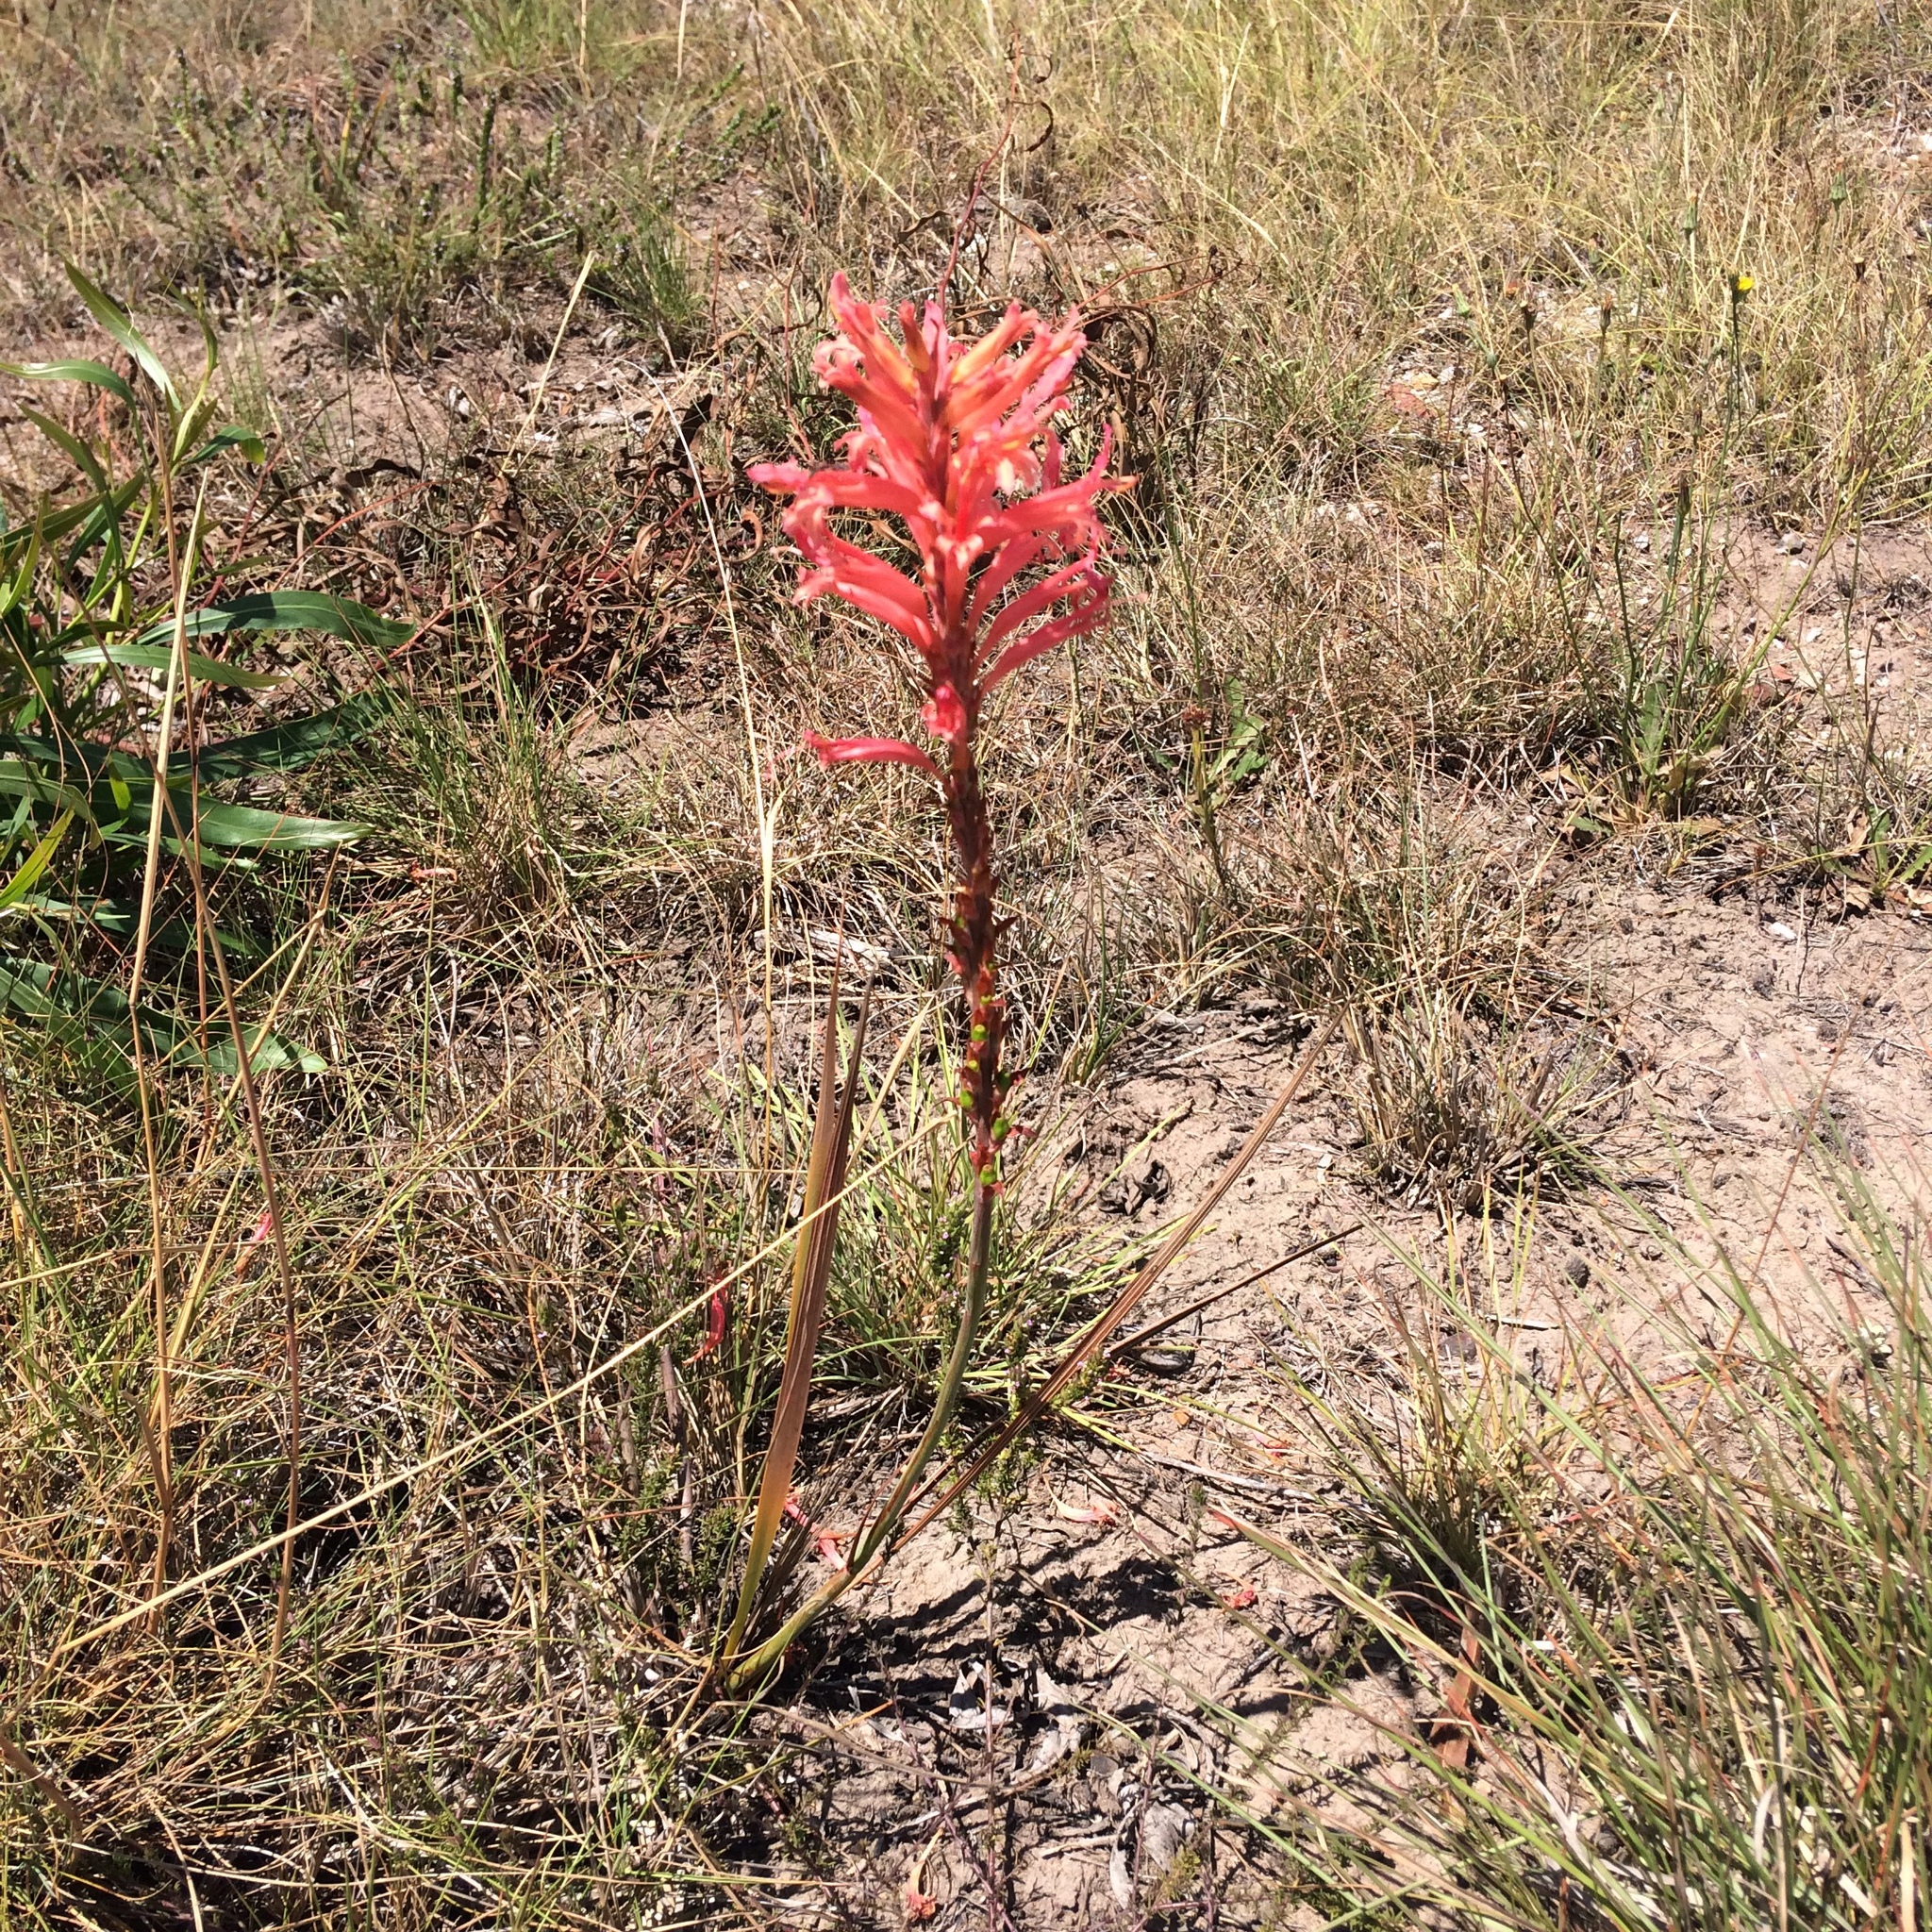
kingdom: Plantae
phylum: Tracheophyta
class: Liliopsida
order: Asparagales
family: Iridaceae
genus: Tritoniopsis
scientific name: Tritoniopsis antholyza
